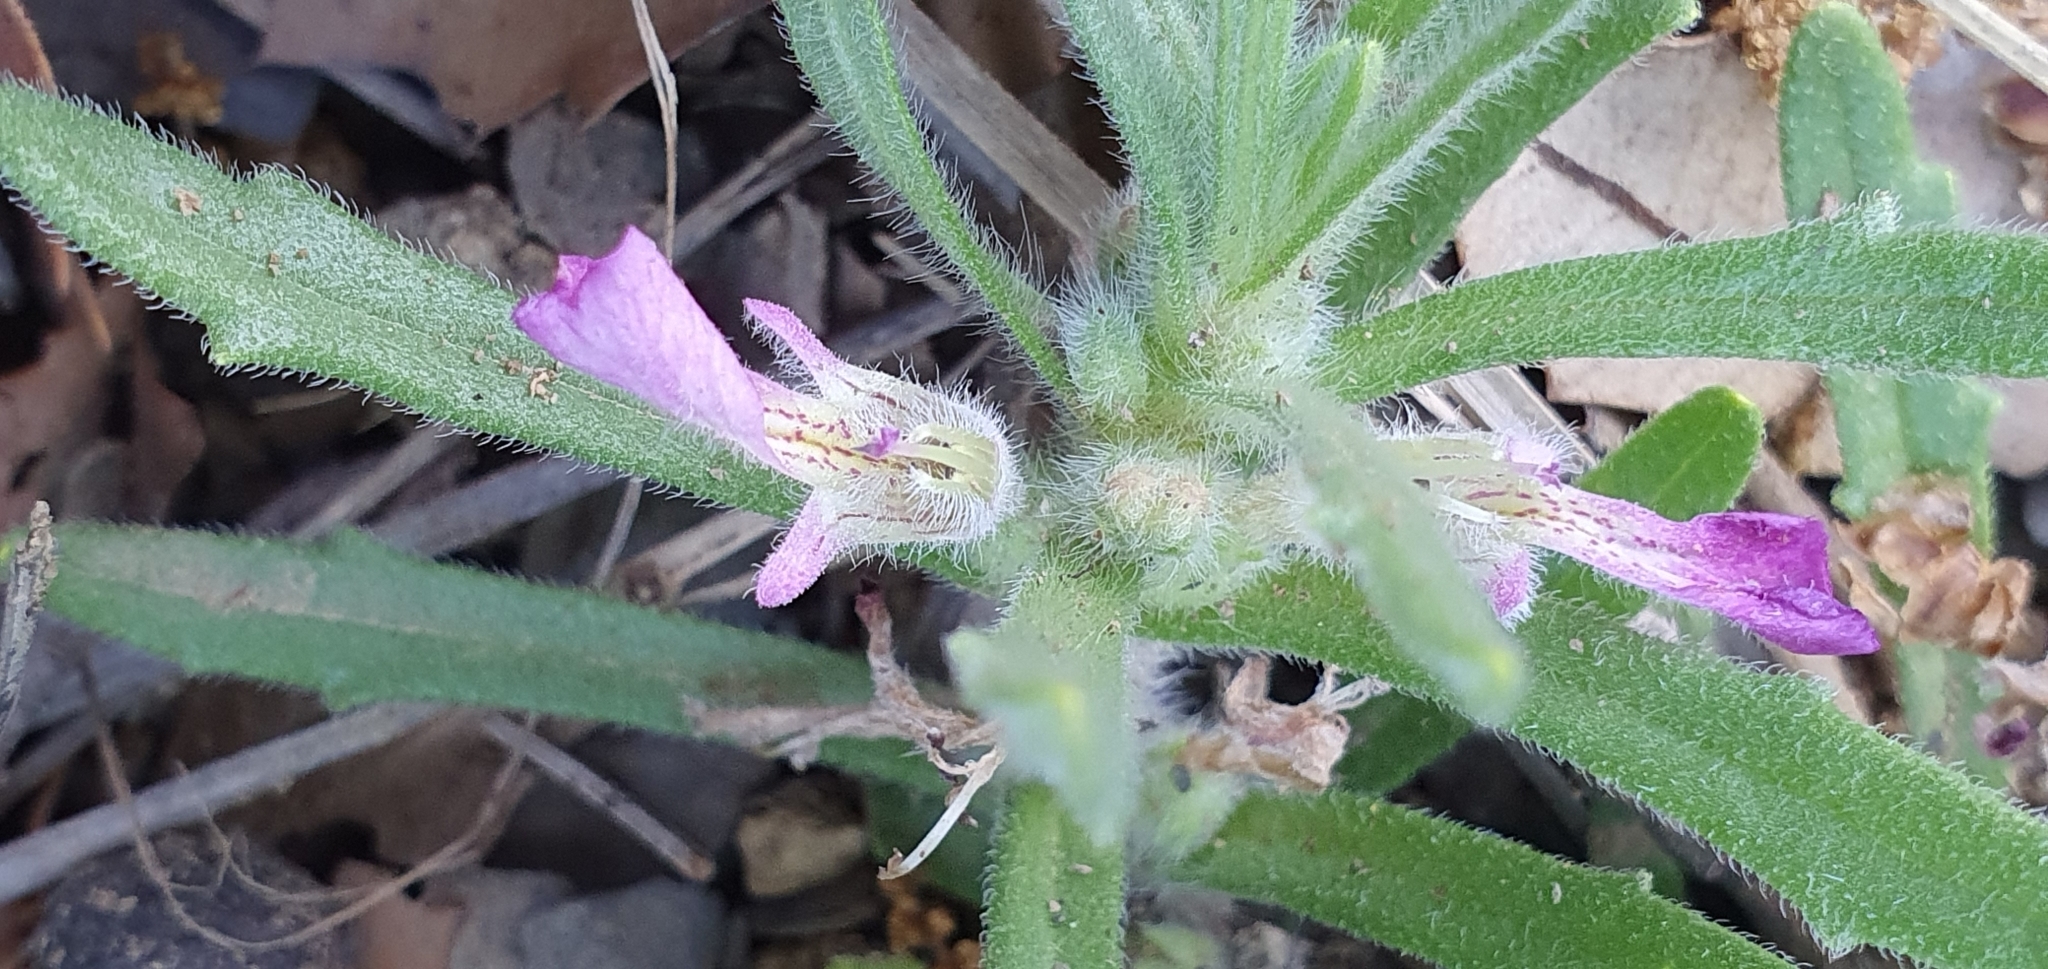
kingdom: Plantae
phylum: Tracheophyta
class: Magnoliopsida
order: Lamiales
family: Lamiaceae
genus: Ajuga
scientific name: Ajuga iva
